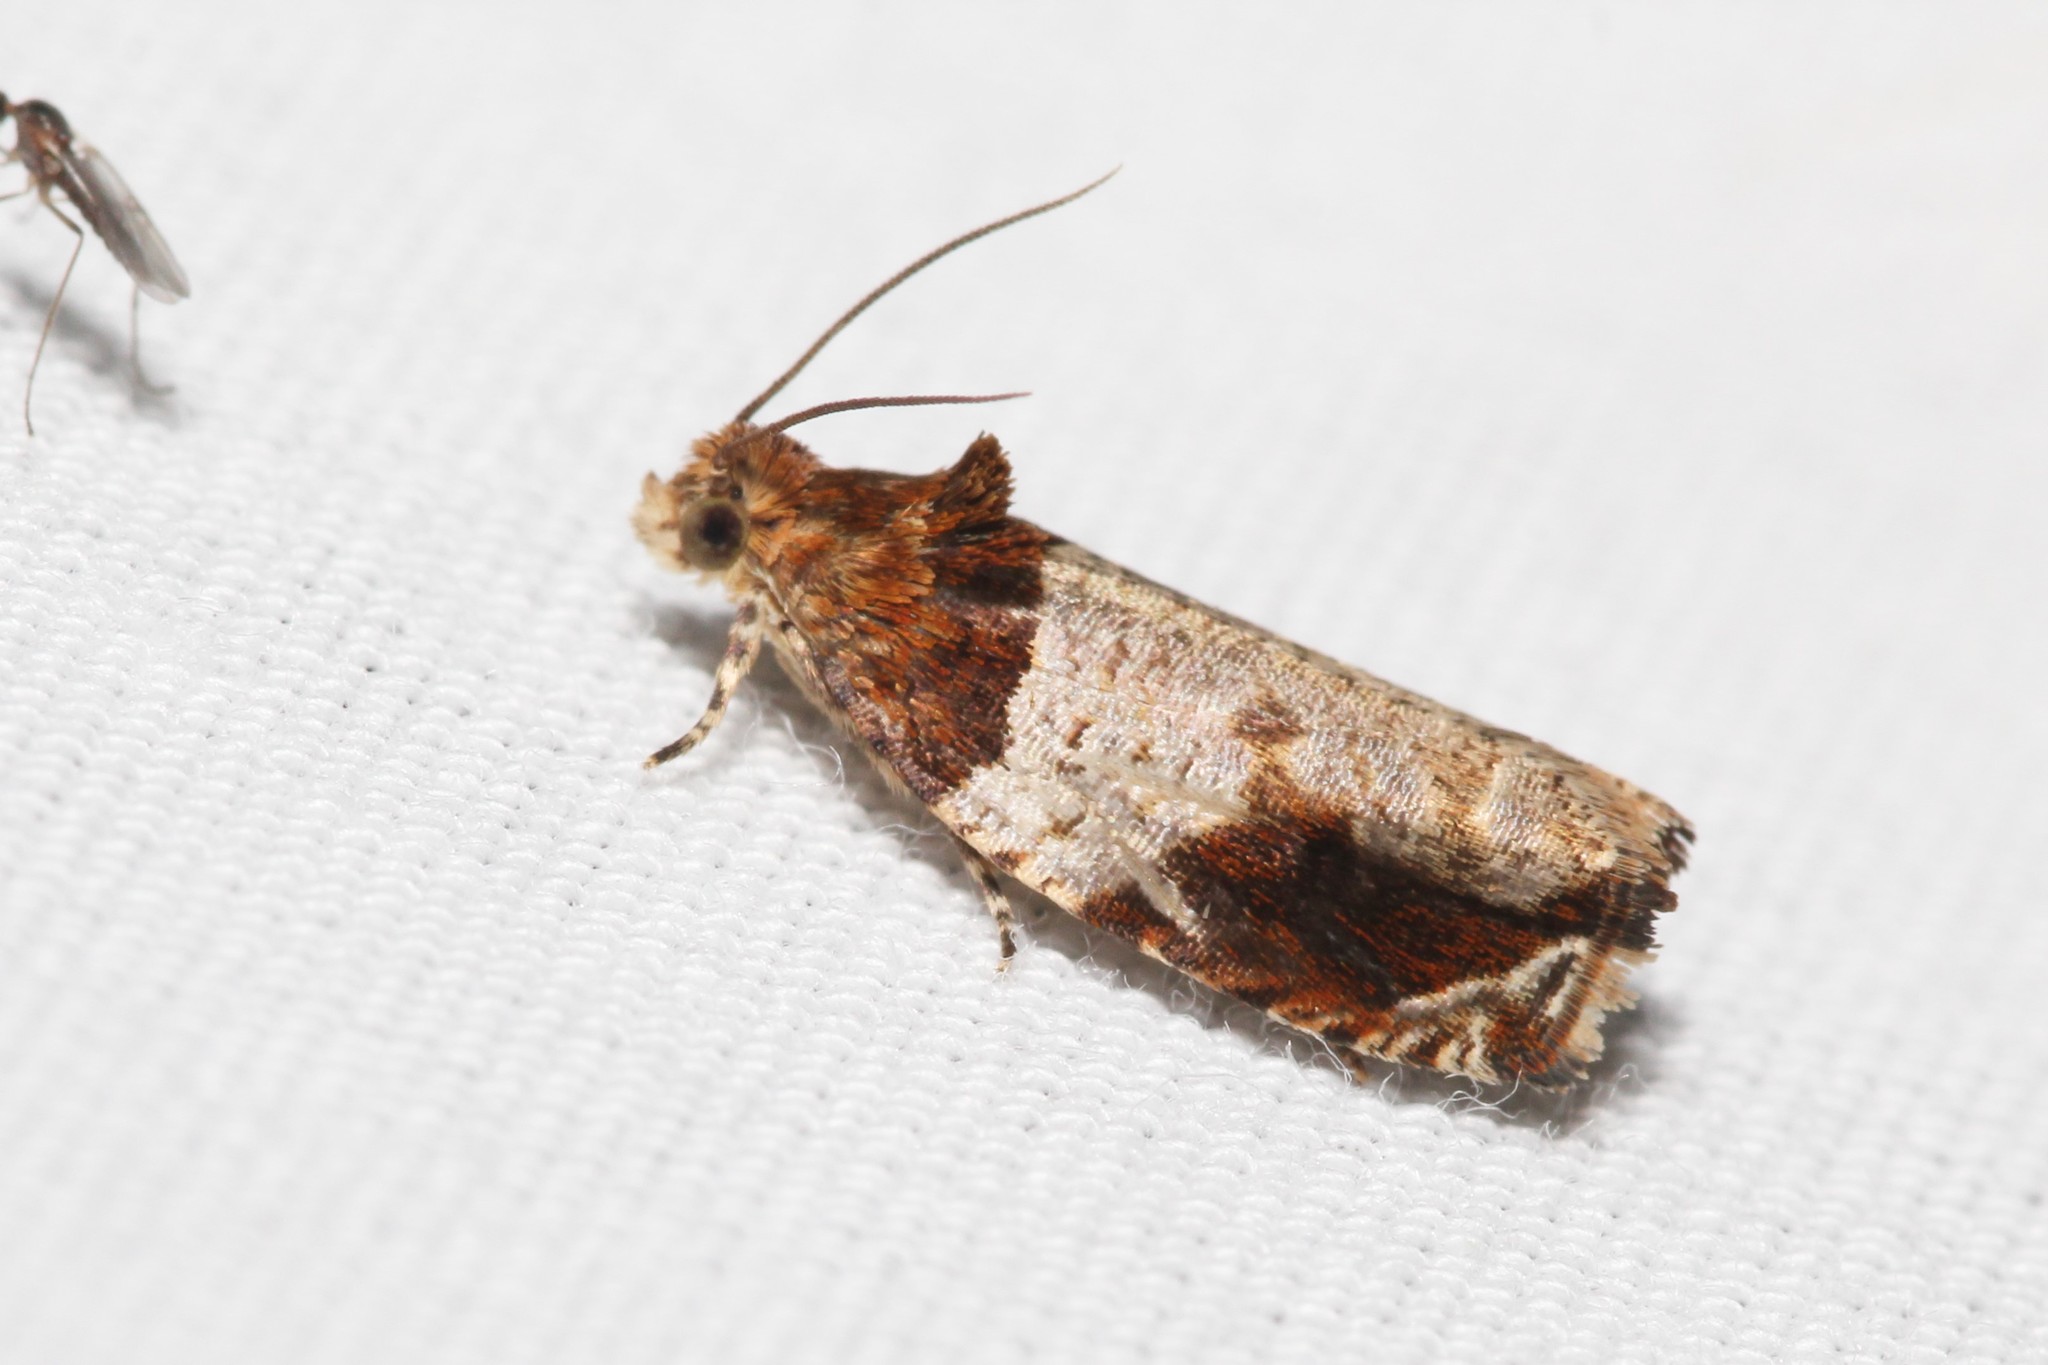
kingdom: Animalia
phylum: Arthropoda
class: Insecta
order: Lepidoptera
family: Tortricidae
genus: Olethreutes
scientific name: Olethreutes ferriferana
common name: Hydrangea leaftier moth
